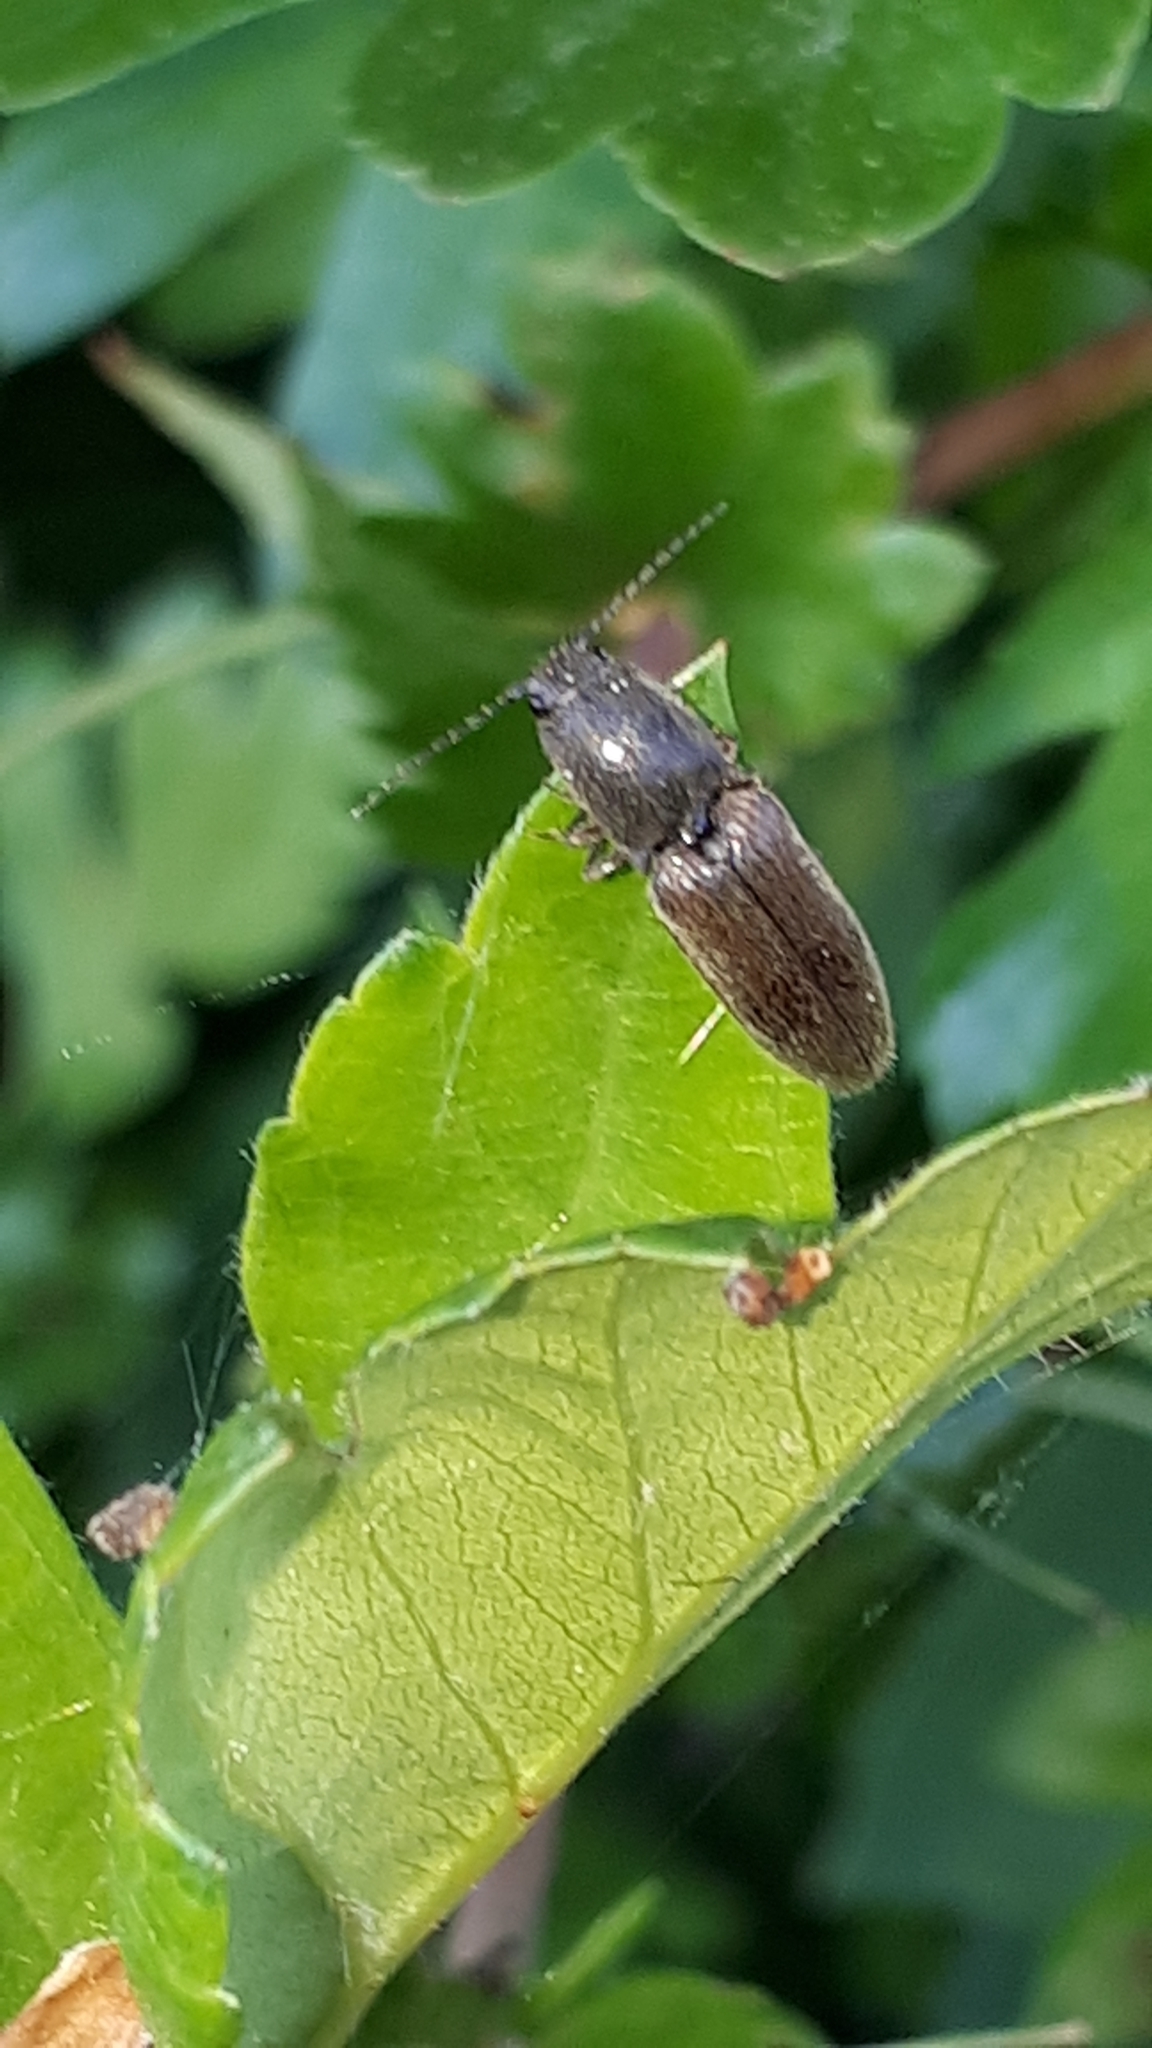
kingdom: Animalia
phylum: Arthropoda
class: Insecta
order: Coleoptera
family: Elateridae
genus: Athous
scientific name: Athous haemorrhoidalis
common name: Red-brown click beetle
